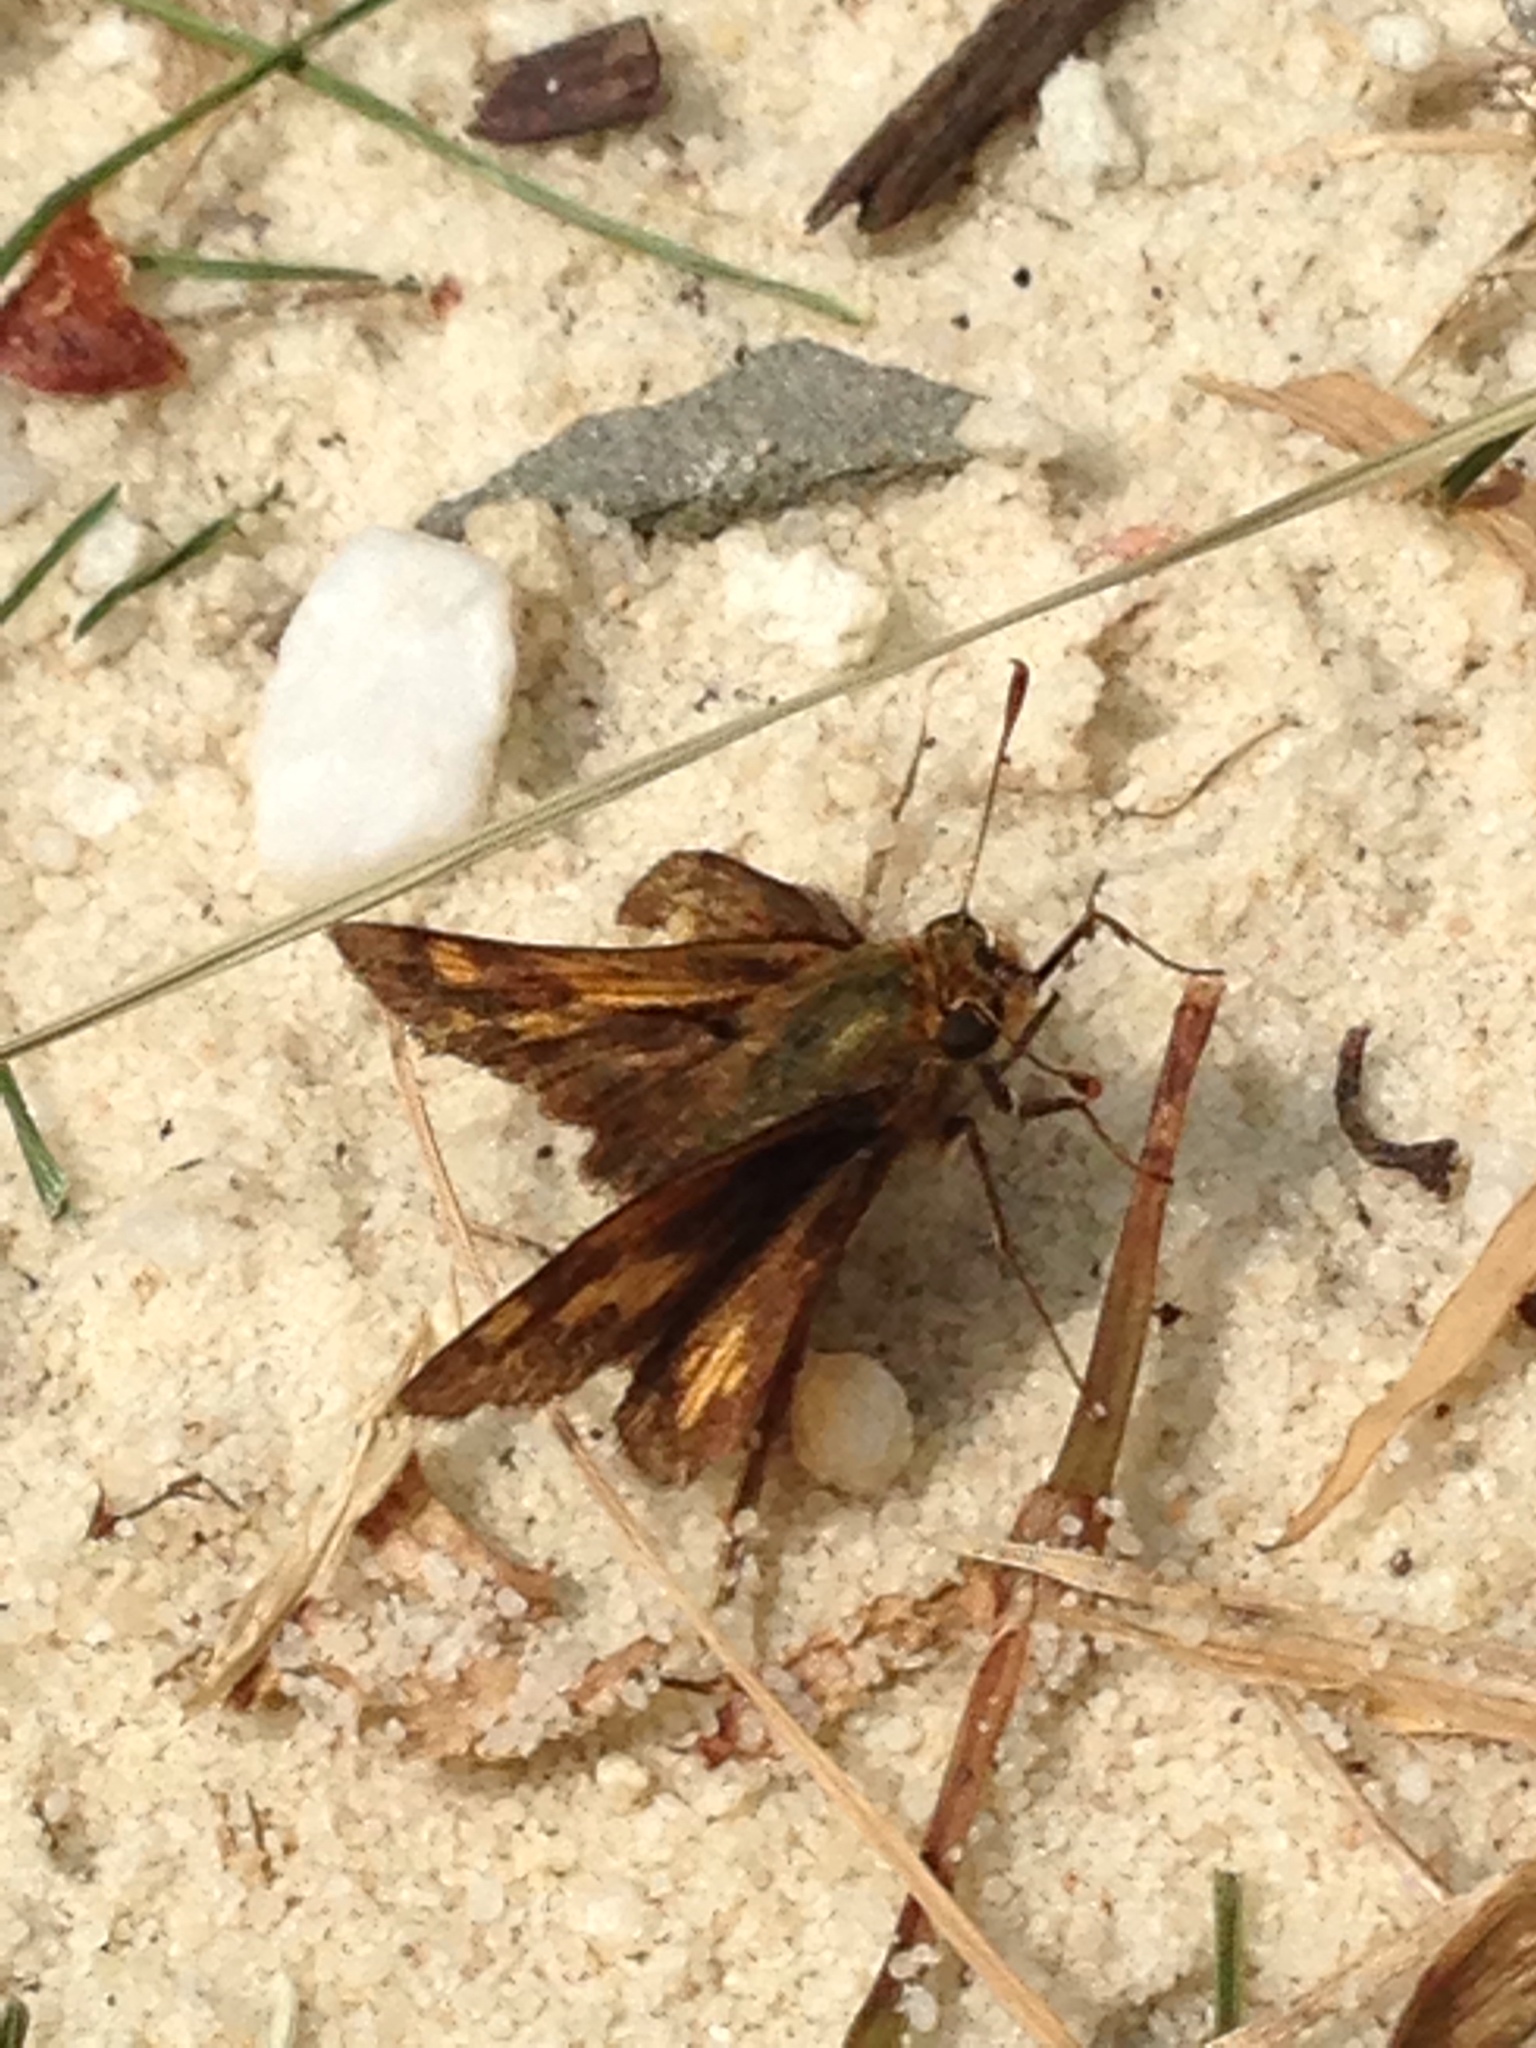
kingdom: Animalia
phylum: Arthropoda
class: Insecta
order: Lepidoptera
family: Hesperiidae
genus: Polites
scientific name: Polites coras
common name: Peck's skipper
